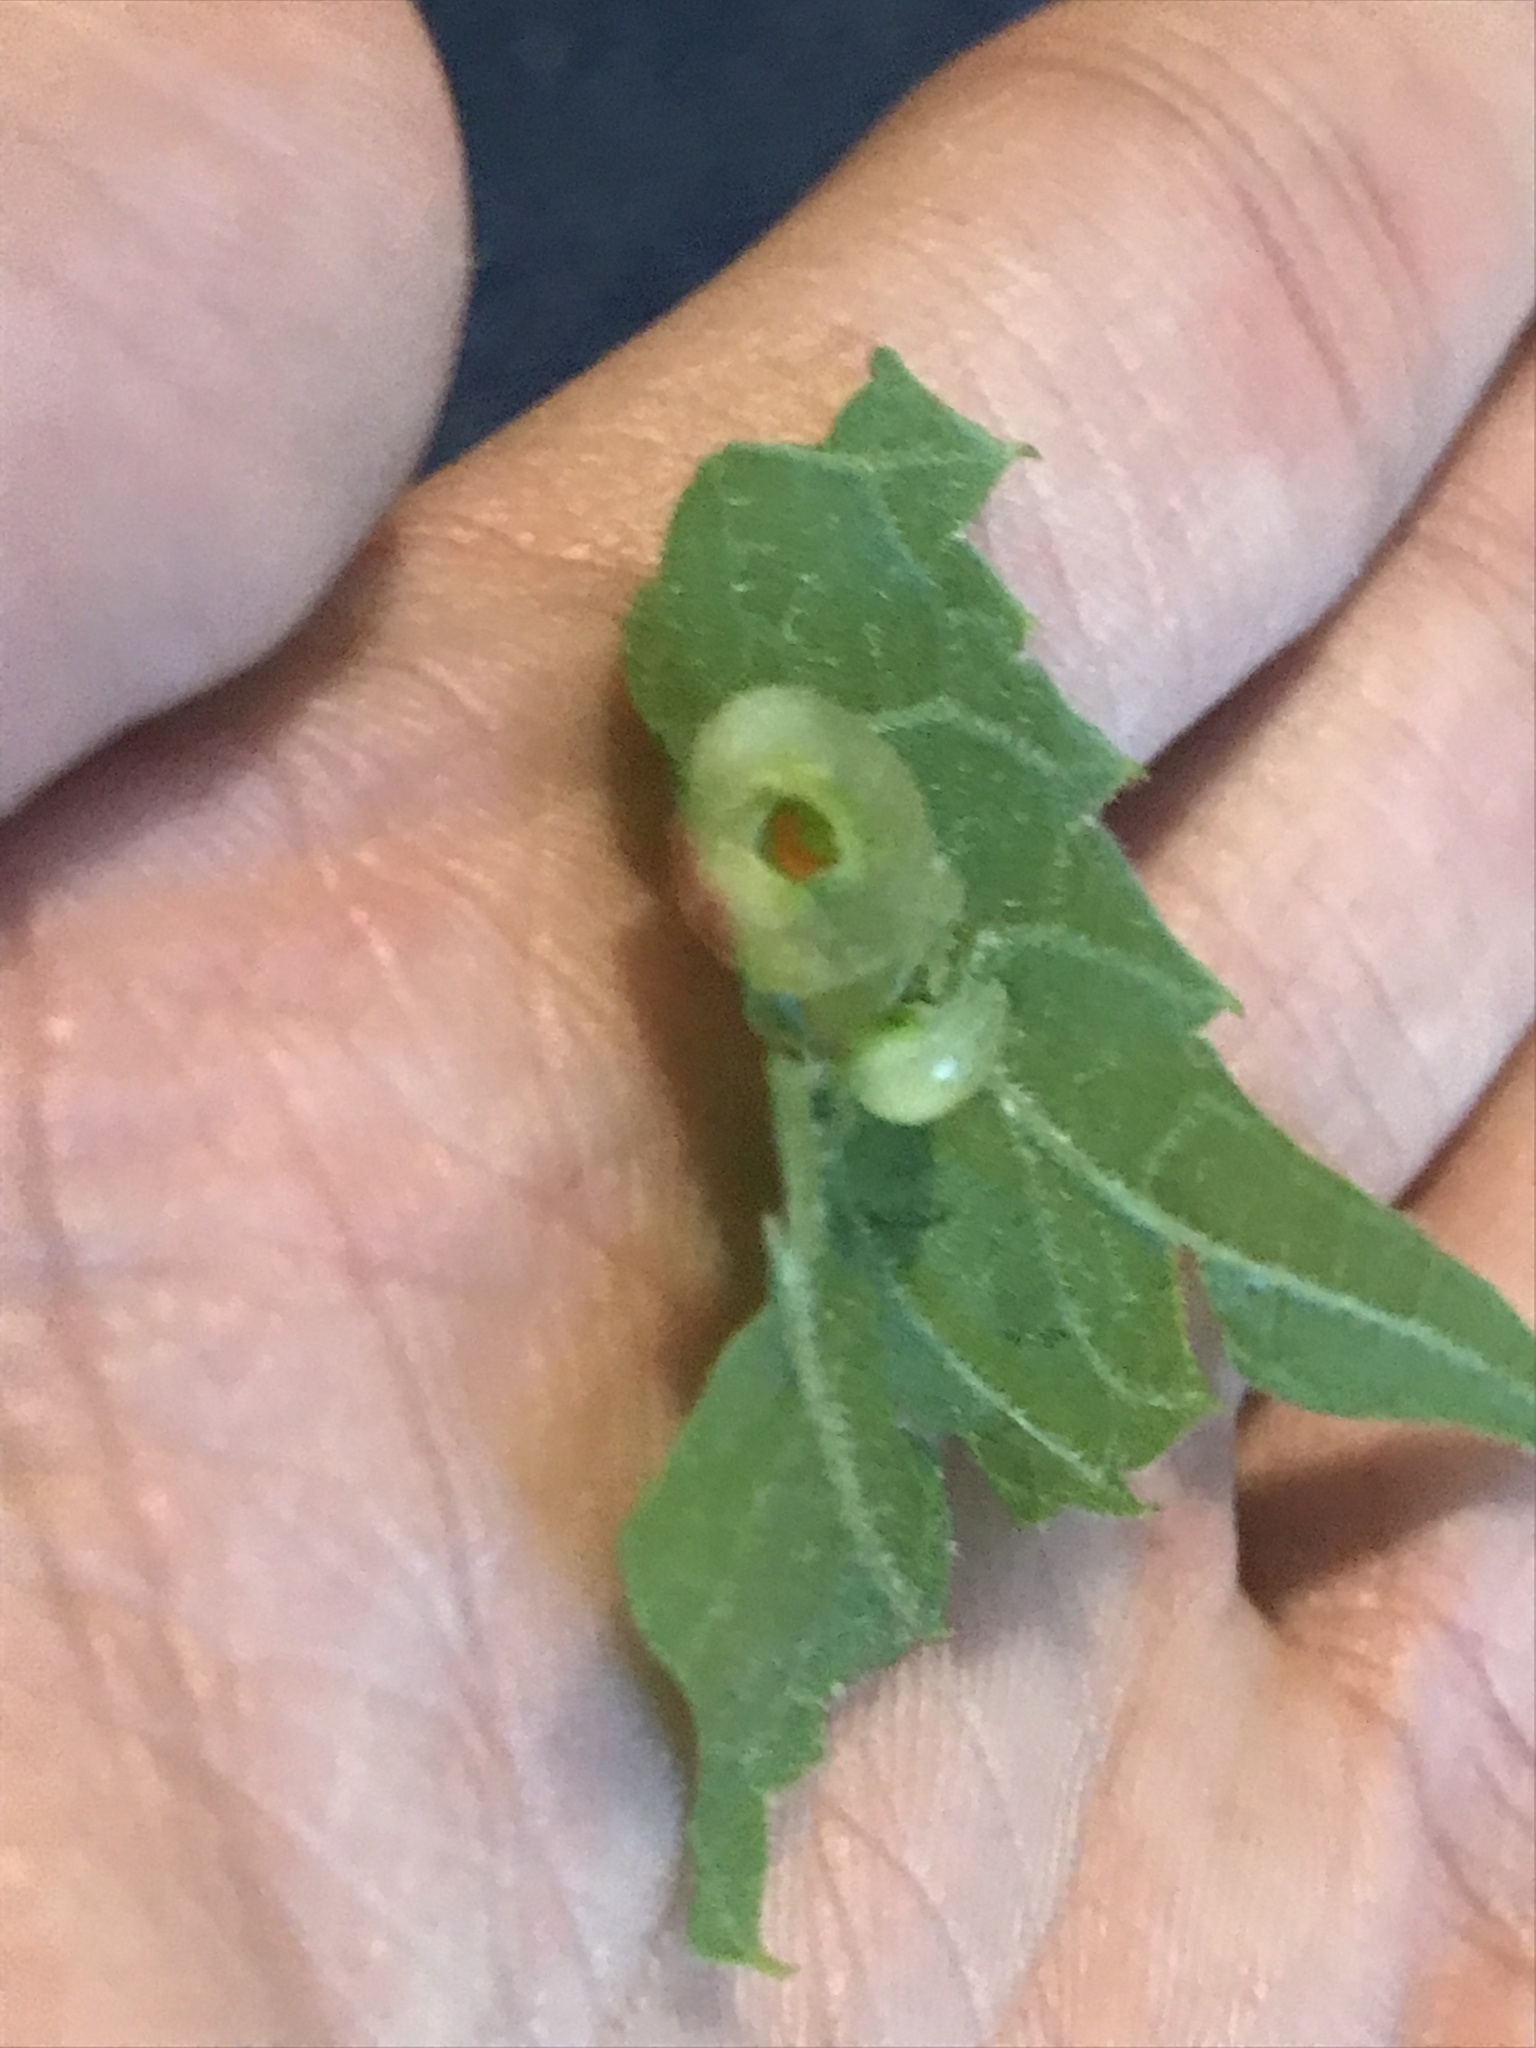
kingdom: Animalia
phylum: Arthropoda
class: Insecta
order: Diptera
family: Cecidomyiidae
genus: Vitisiella
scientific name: Vitisiella brevicauda
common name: Grape tumid gallmaker midge
